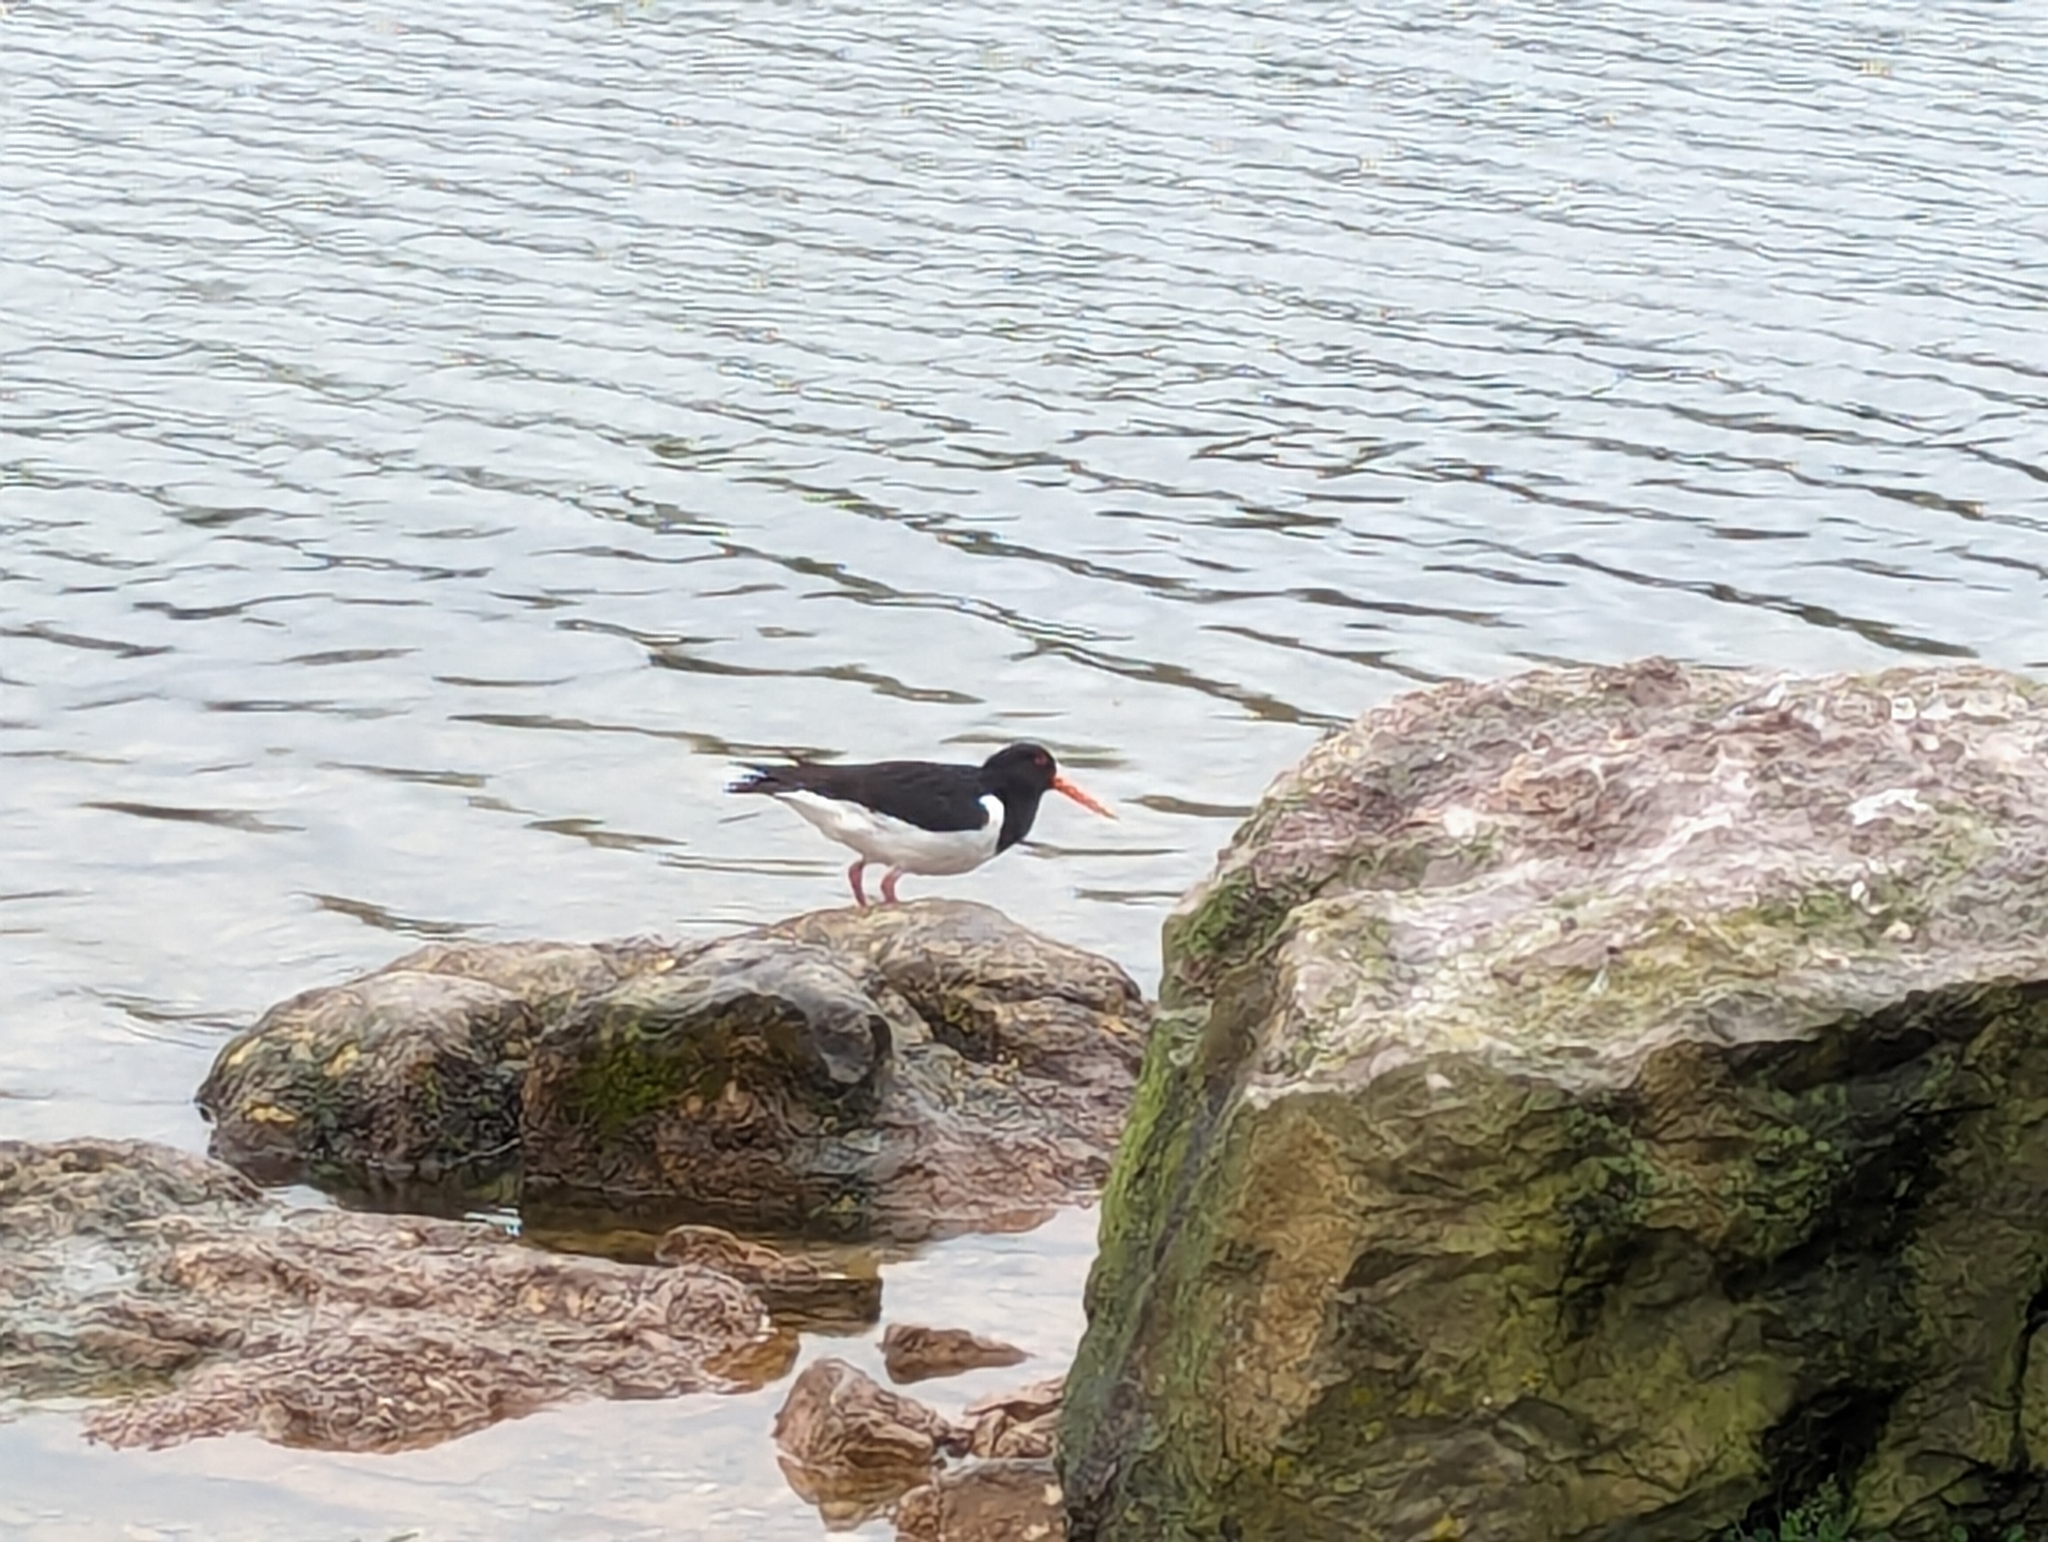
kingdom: Animalia
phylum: Chordata
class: Aves
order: Charadriiformes
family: Haematopodidae
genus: Haematopus
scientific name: Haematopus ostralegus
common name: Eurasian oystercatcher
